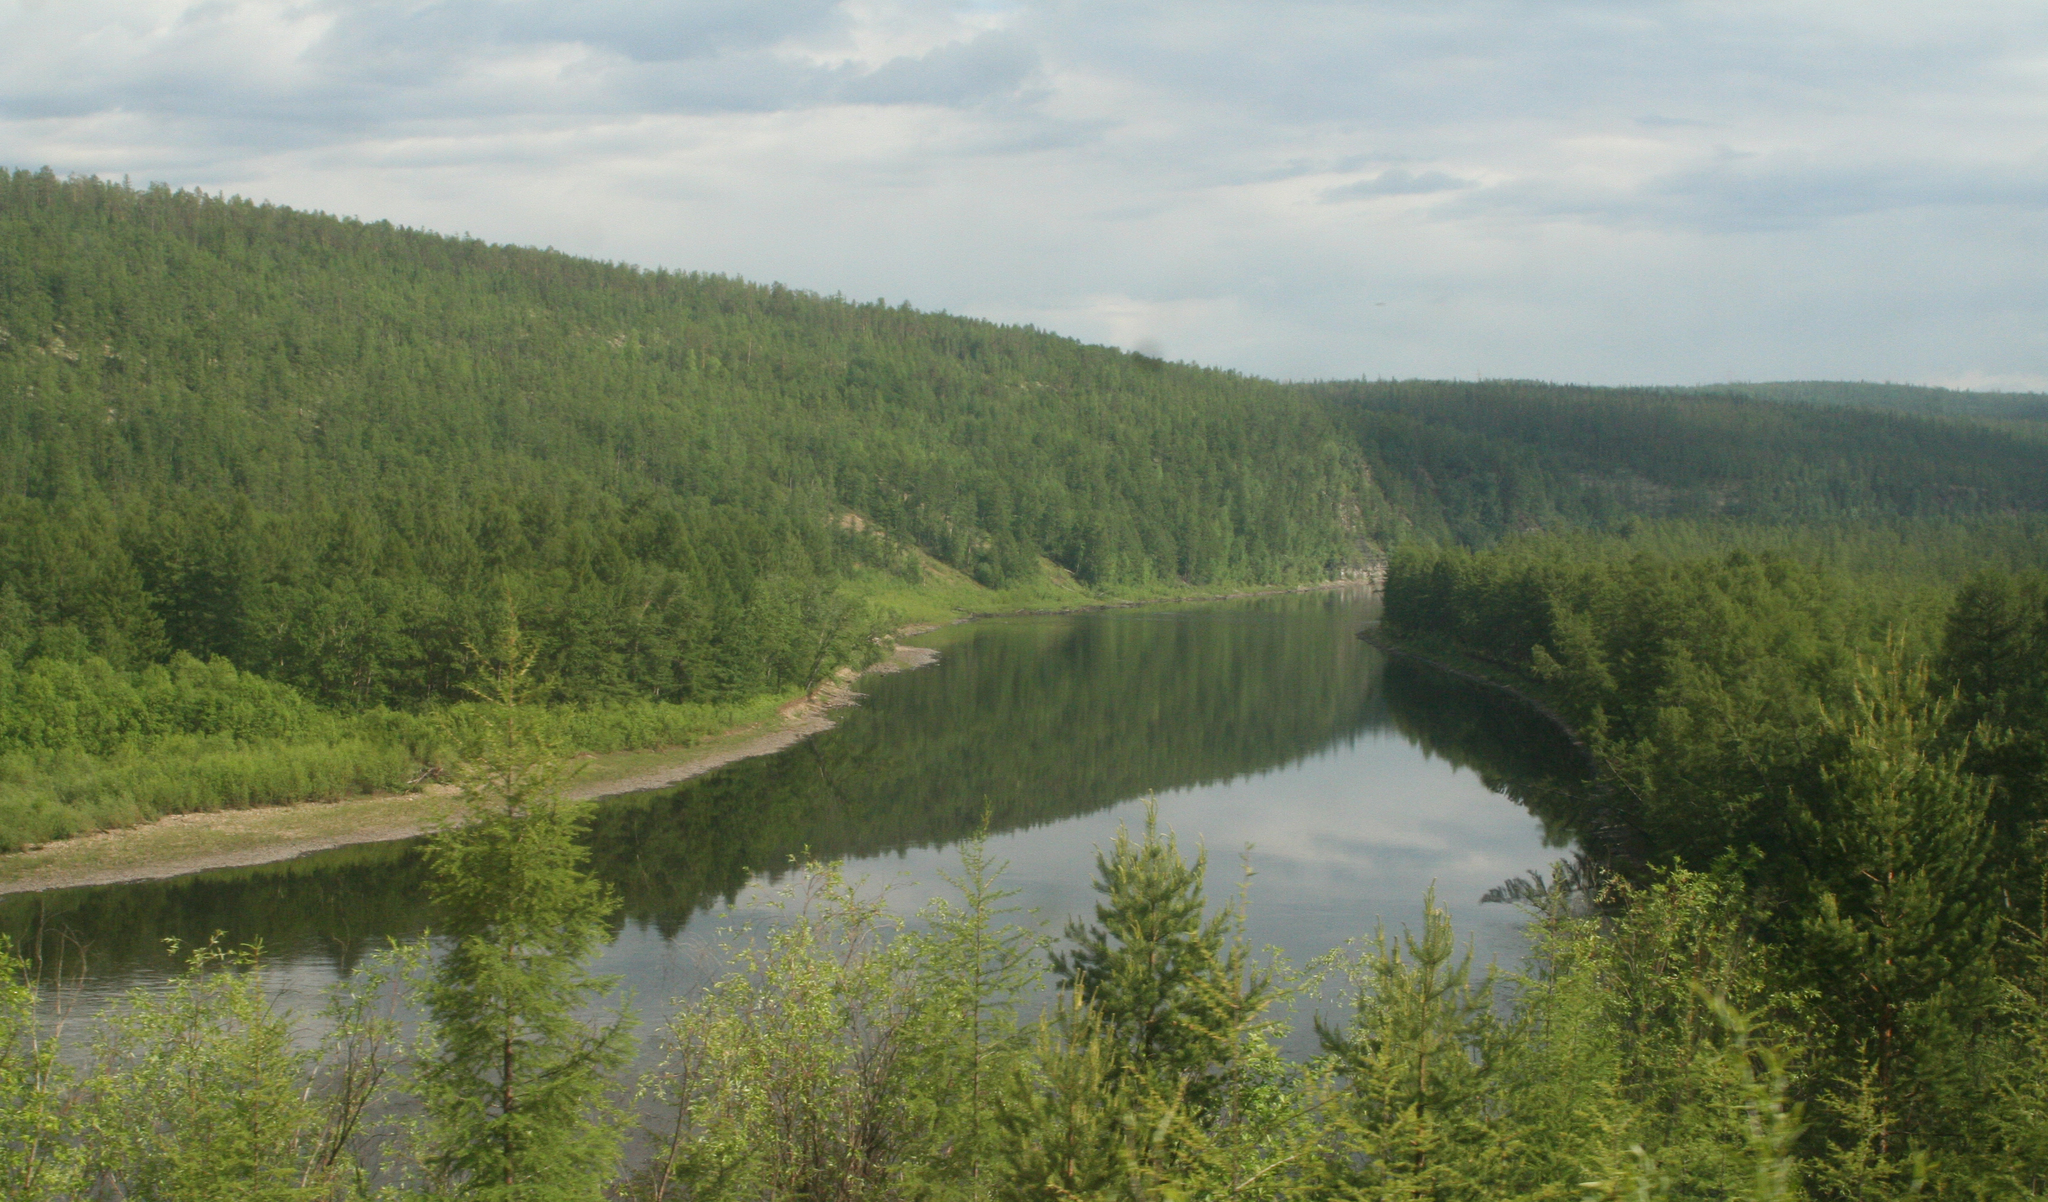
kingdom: Plantae
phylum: Tracheophyta
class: Pinopsida
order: Pinales
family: Pinaceae
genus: Larix
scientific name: Larix gmelinii
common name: Dahurian larch
